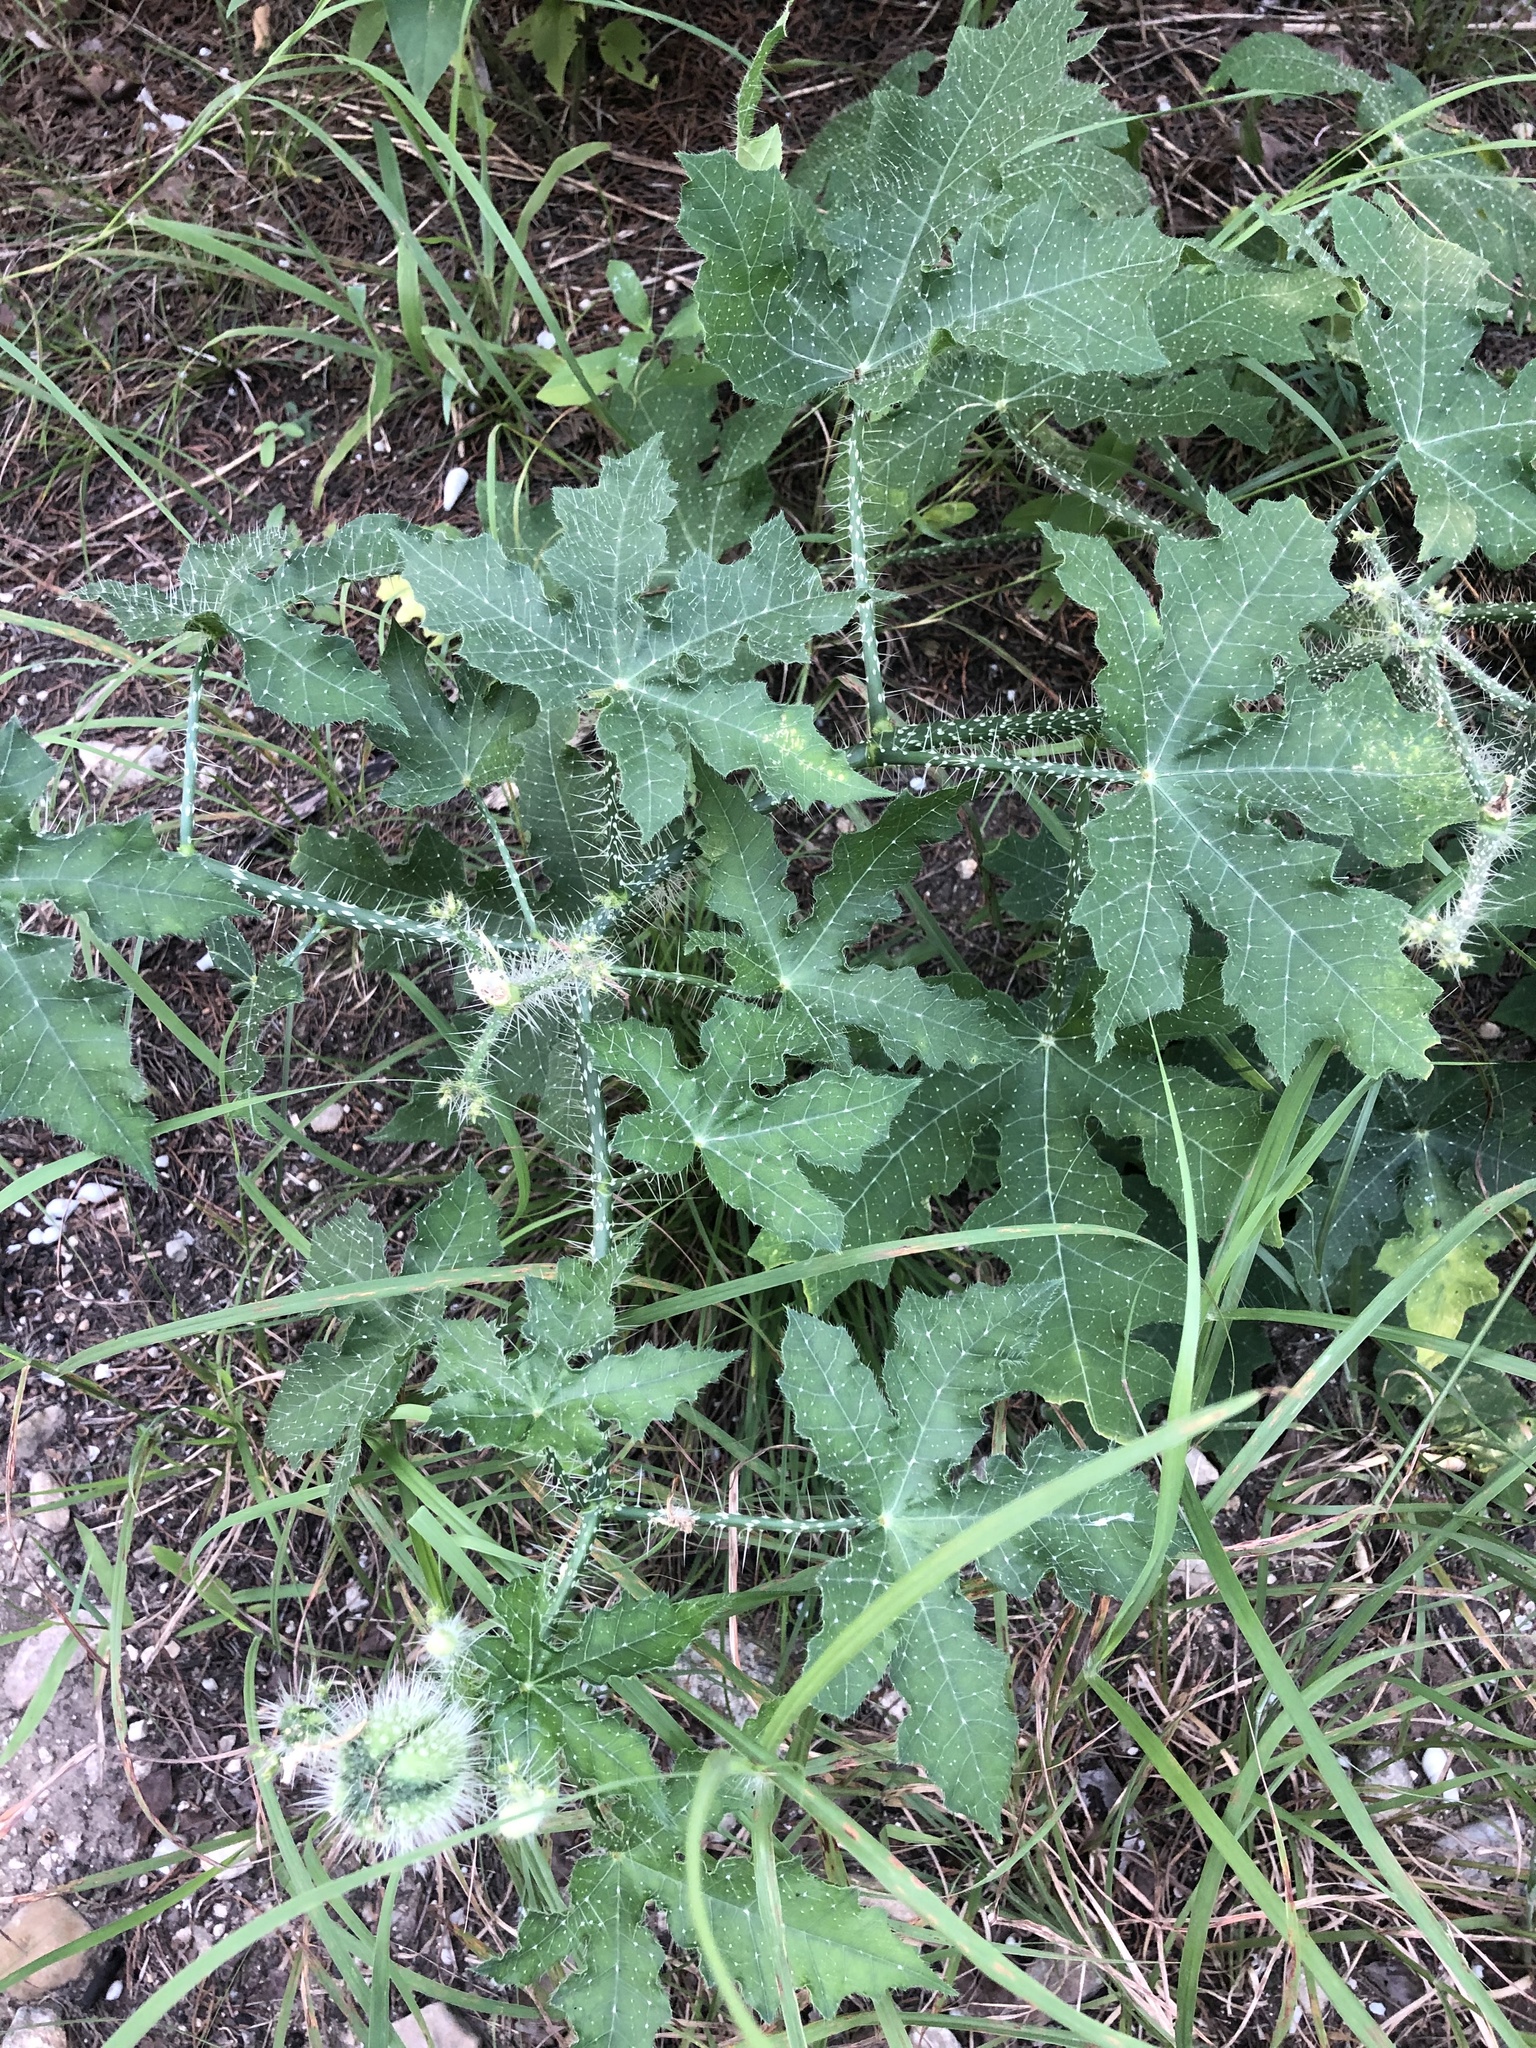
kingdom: Plantae
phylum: Tracheophyta
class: Magnoliopsida
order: Malpighiales
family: Euphorbiaceae
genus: Cnidoscolus
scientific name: Cnidoscolus texanus
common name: Texas bull-nettle
